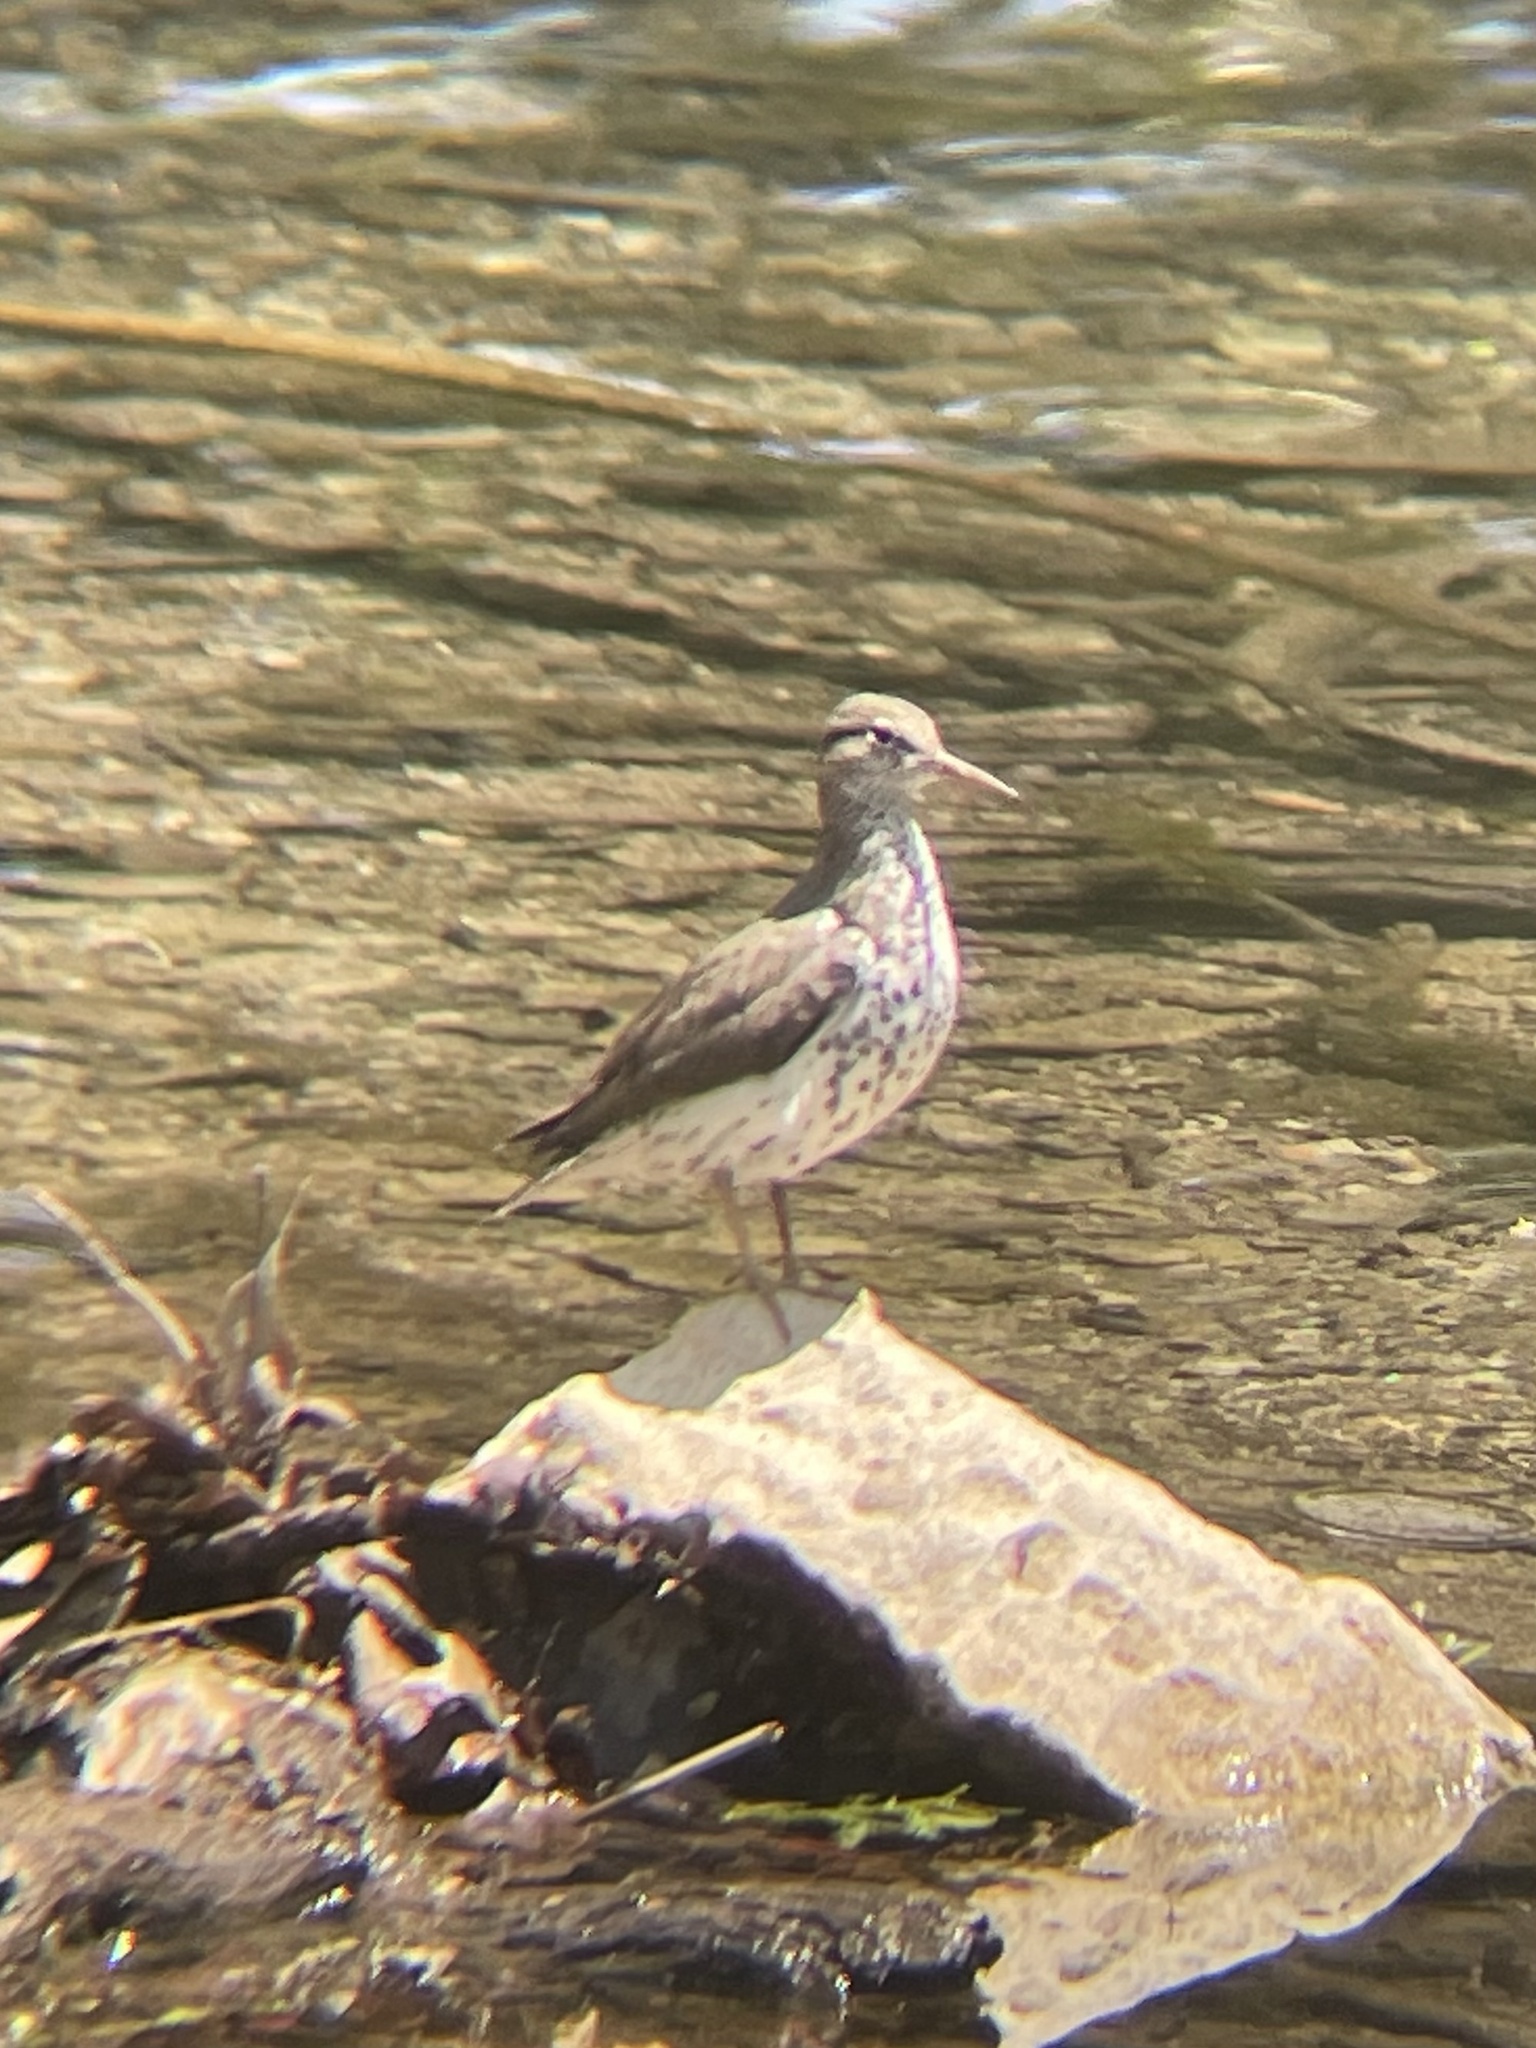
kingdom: Animalia
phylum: Chordata
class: Aves
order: Charadriiformes
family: Scolopacidae
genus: Actitis
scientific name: Actitis macularius
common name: Spotted sandpiper
